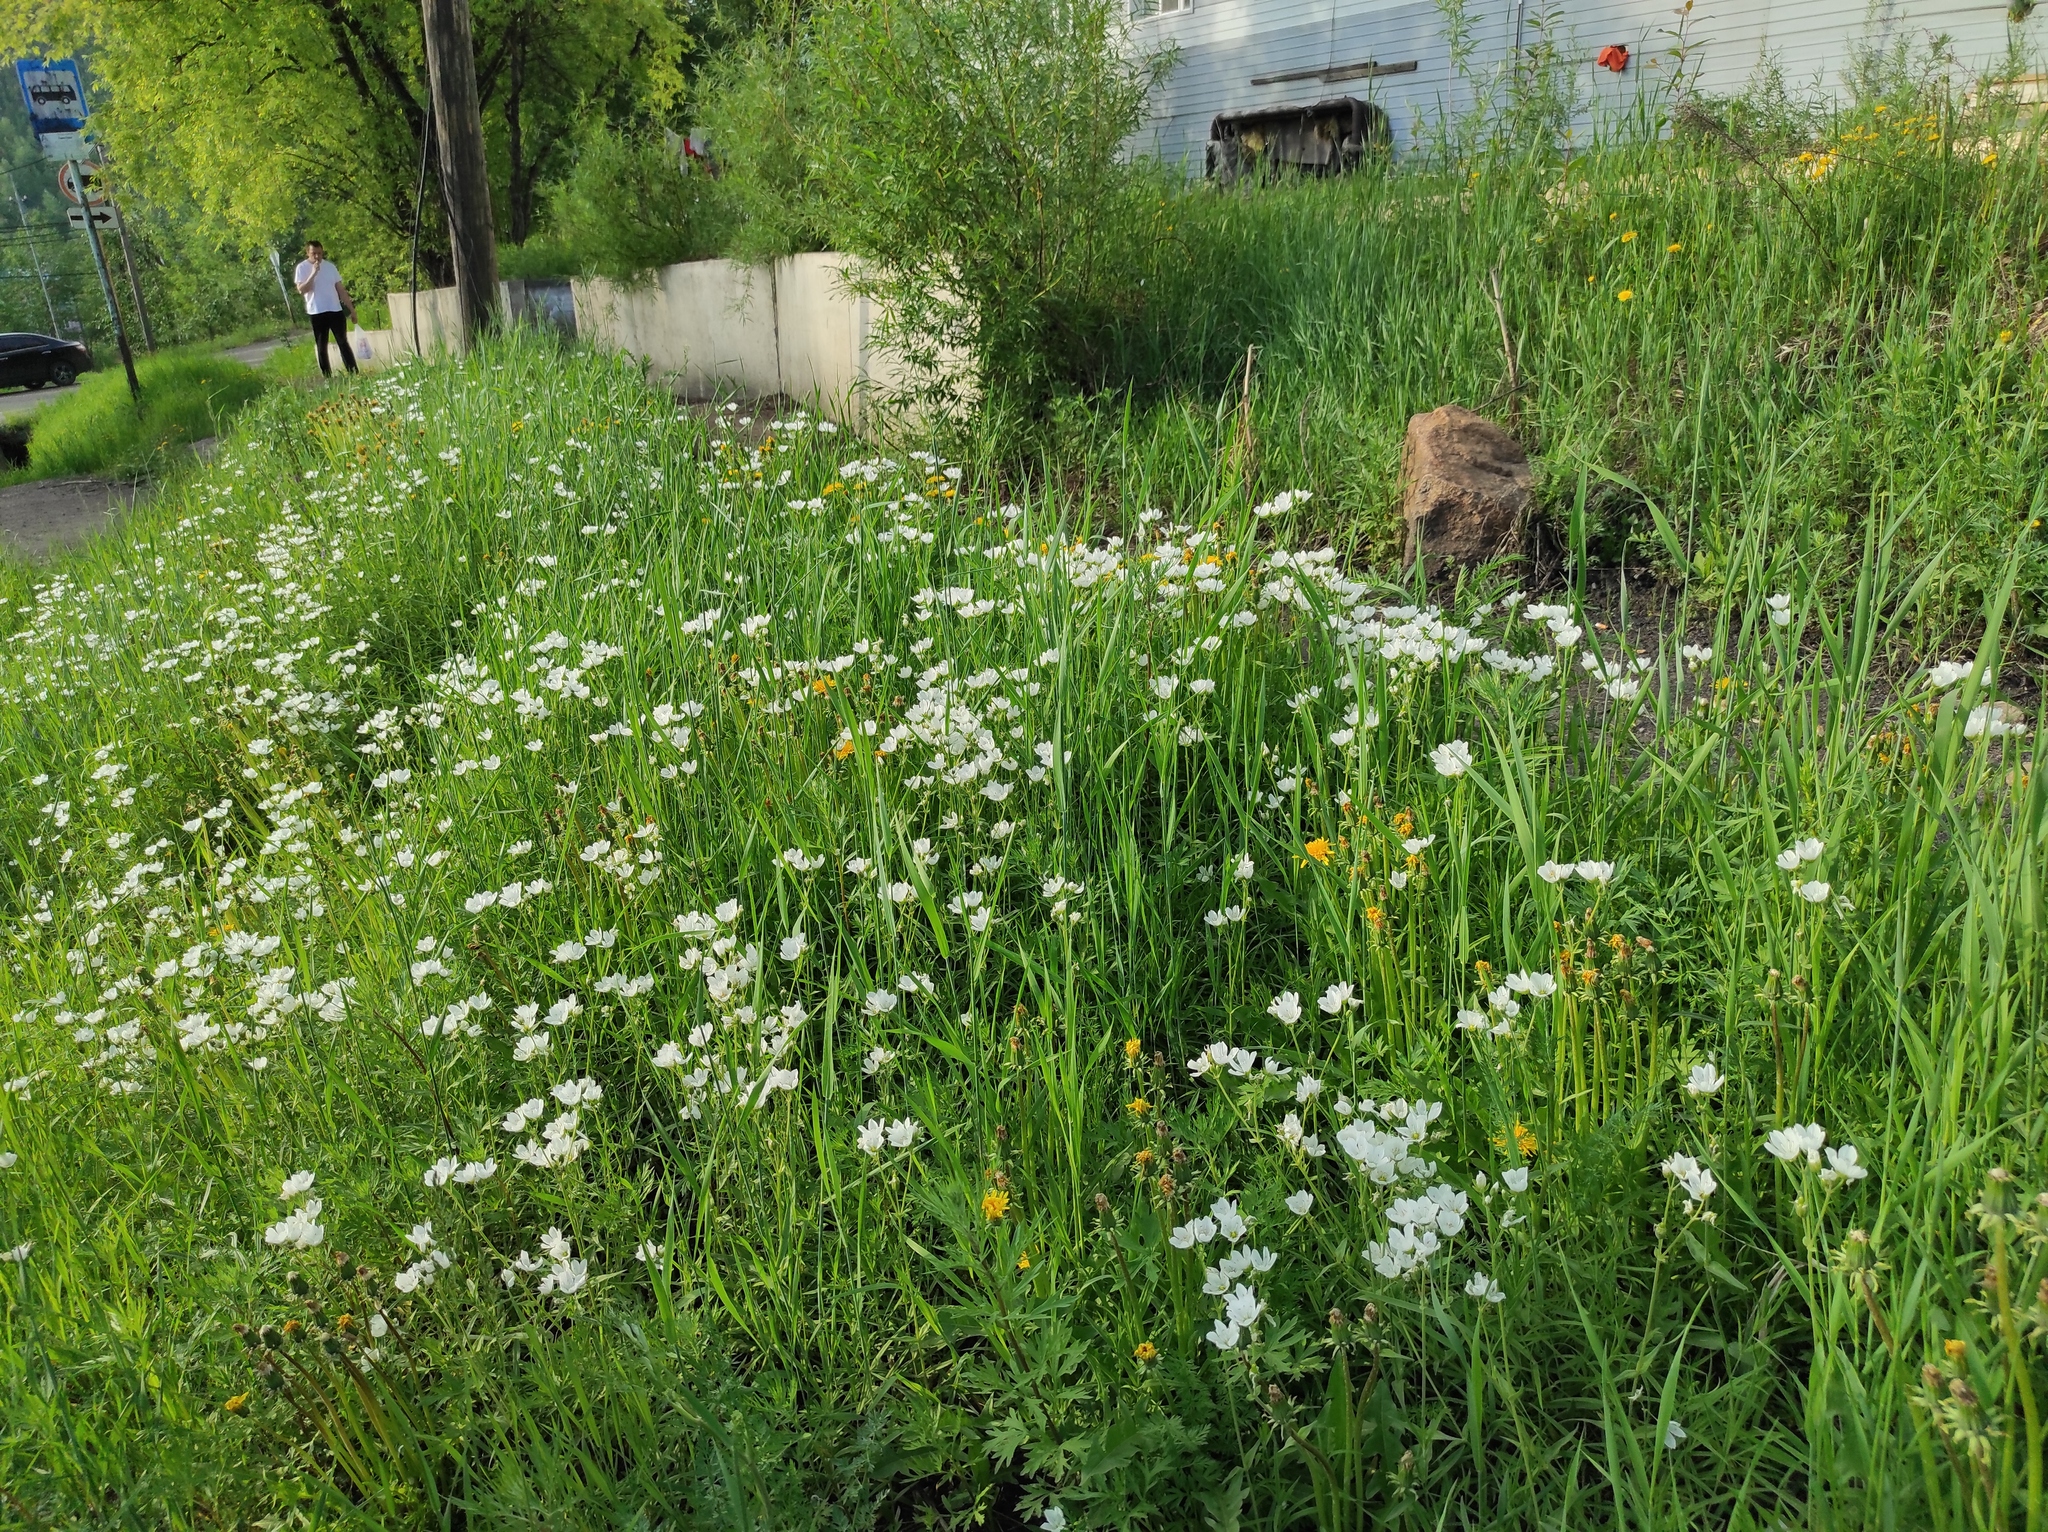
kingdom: Plantae
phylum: Tracheophyta
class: Magnoliopsida
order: Caryophyllales
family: Caryophyllaceae
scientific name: Caryophyllaceae
